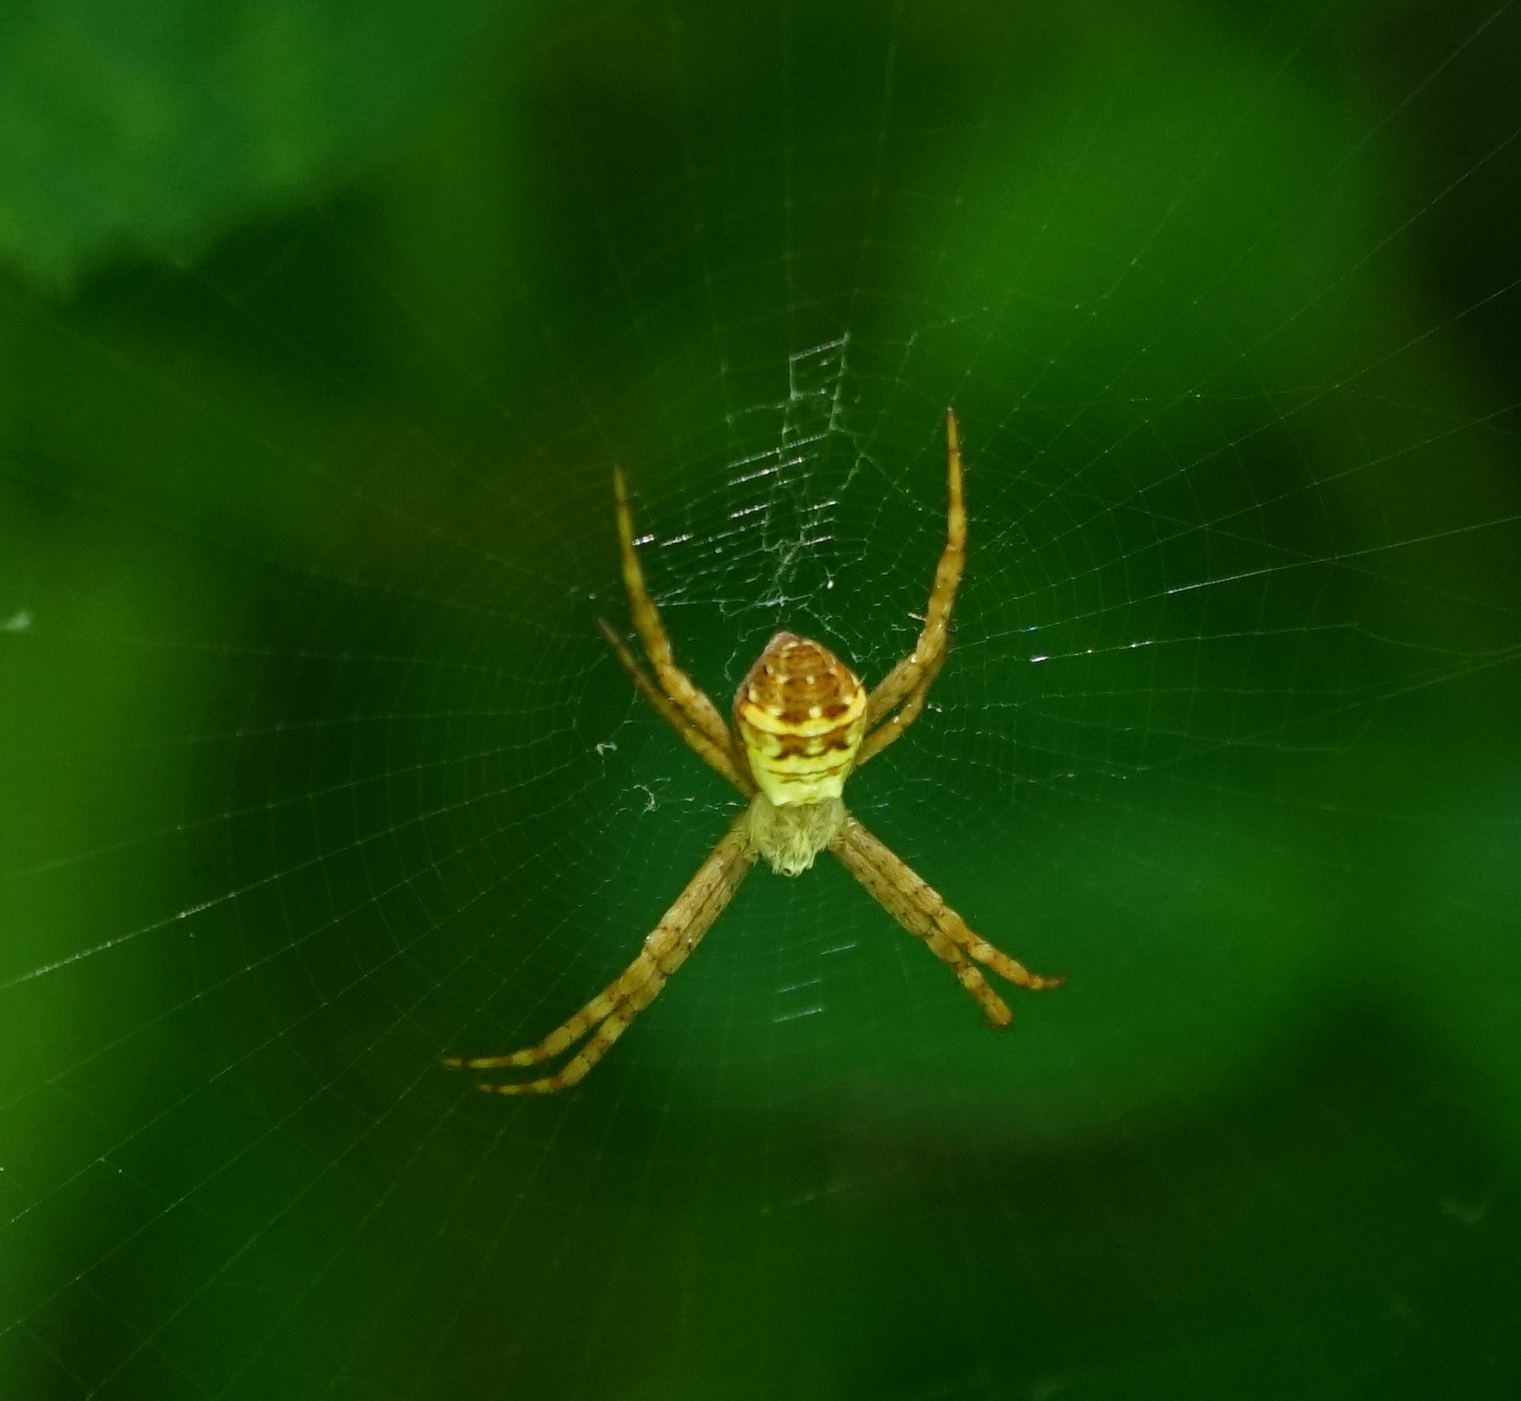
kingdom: Animalia
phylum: Arthropoda
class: Arachnida
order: Araneae
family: Araneidae
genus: Argiope
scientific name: Argiope keyserlingi
